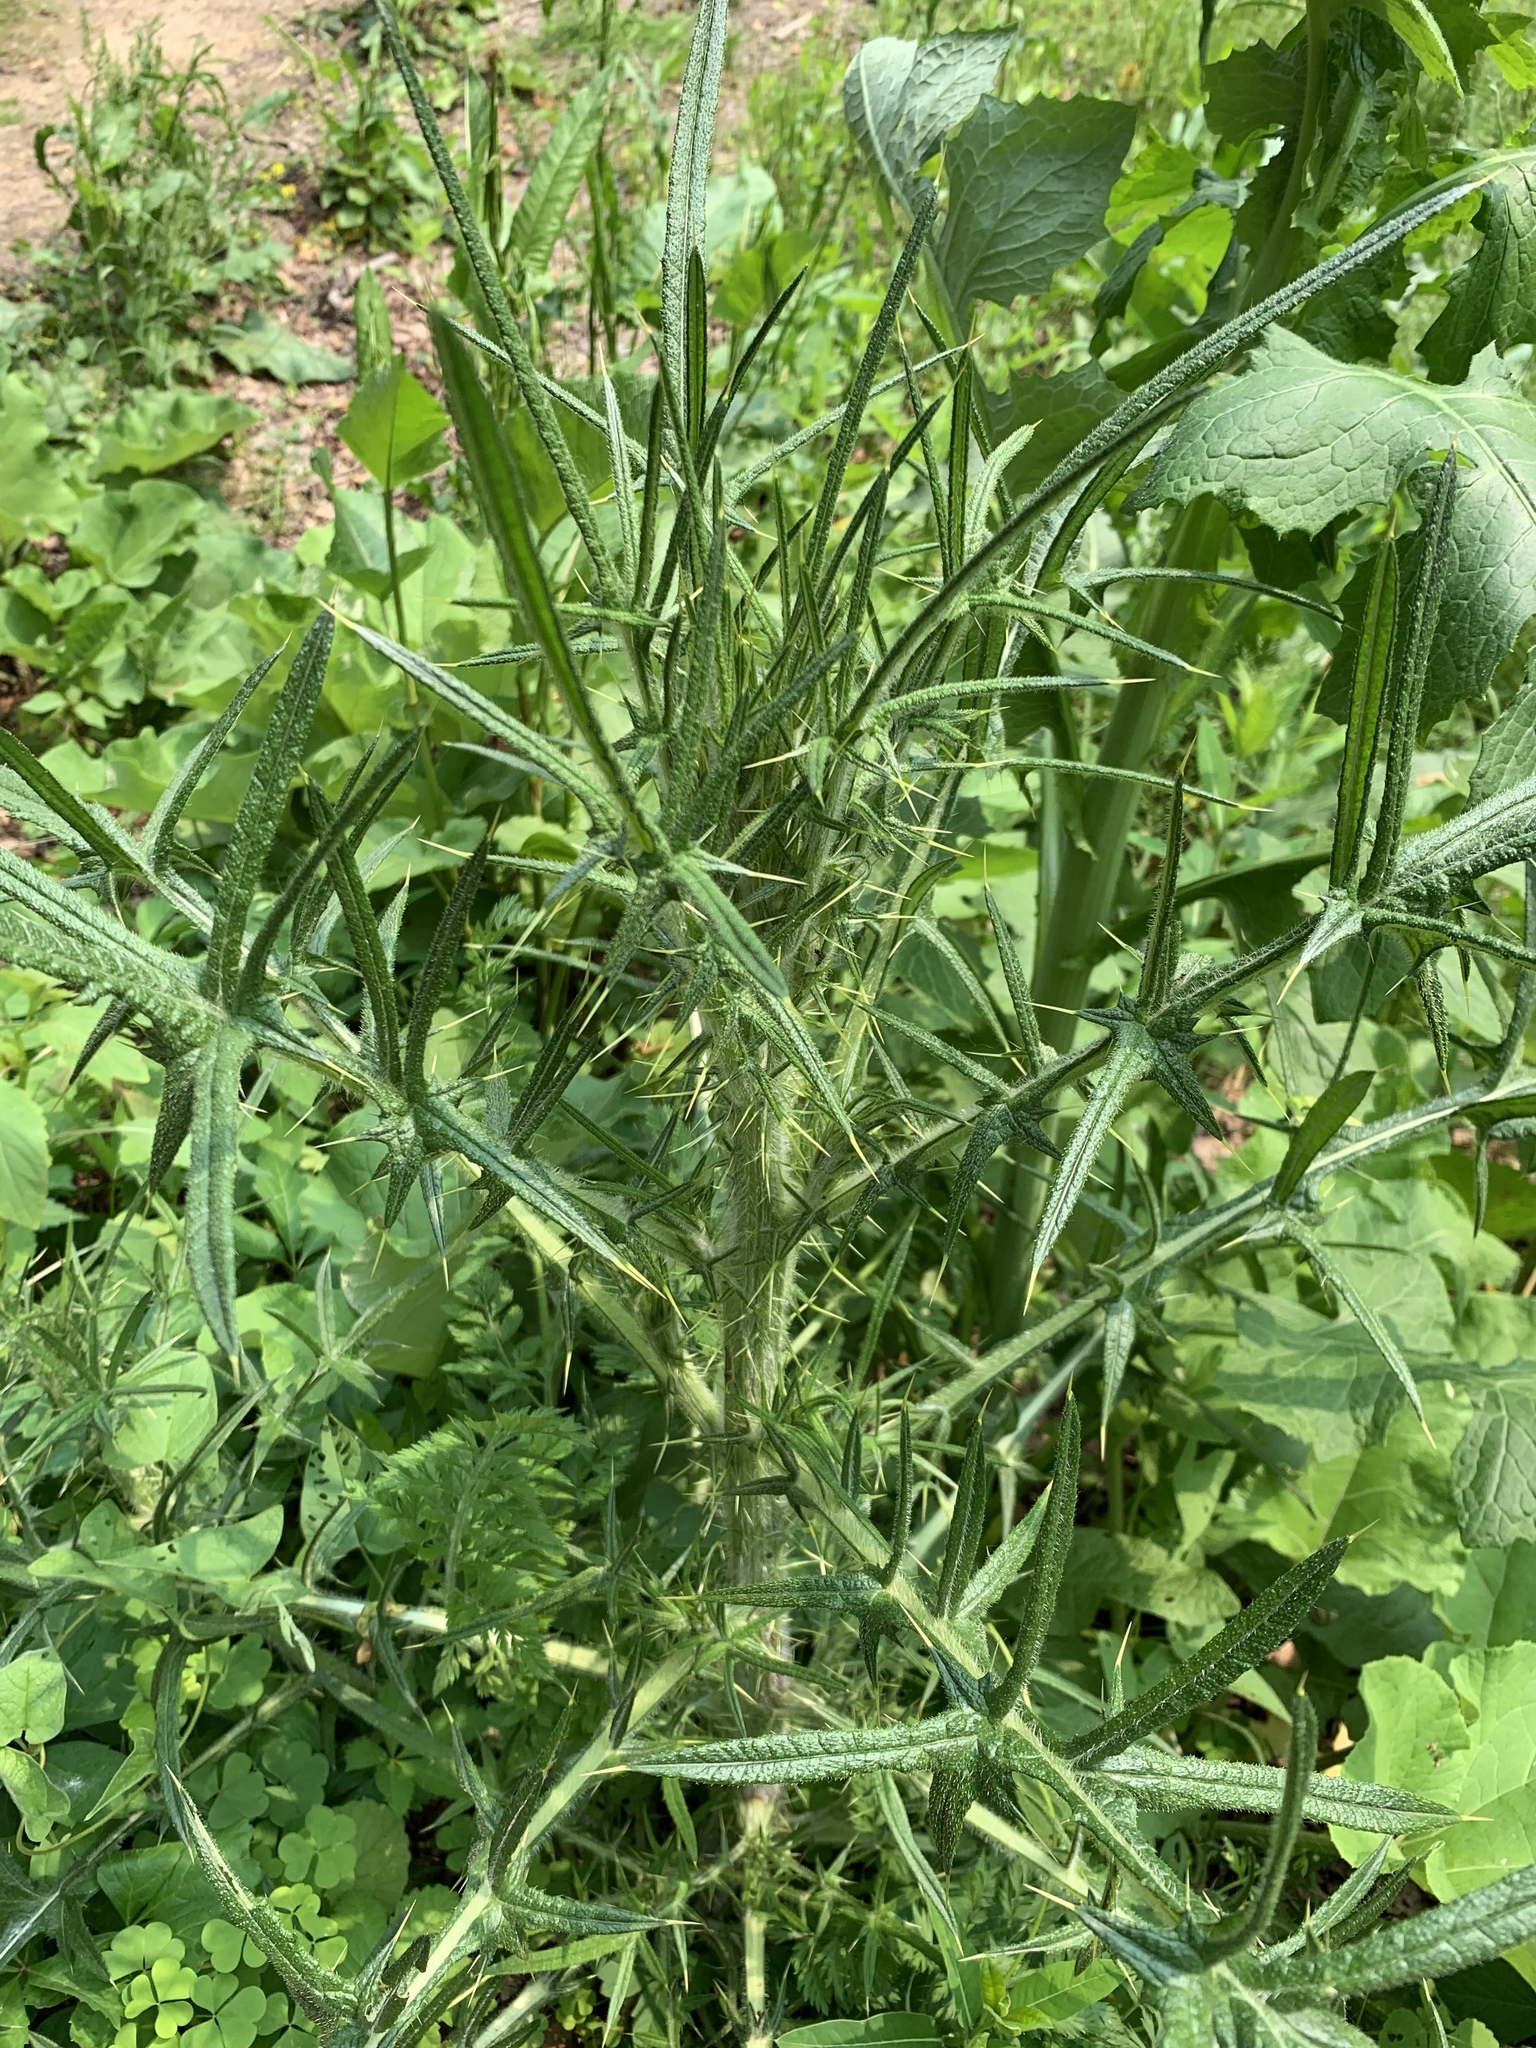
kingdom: Plantae
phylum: Tracheophyta
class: Magnoliopsida
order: Asterales
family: Asteraceae
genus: Cirsium
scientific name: Cirsium vulgare
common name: Bull thistle
